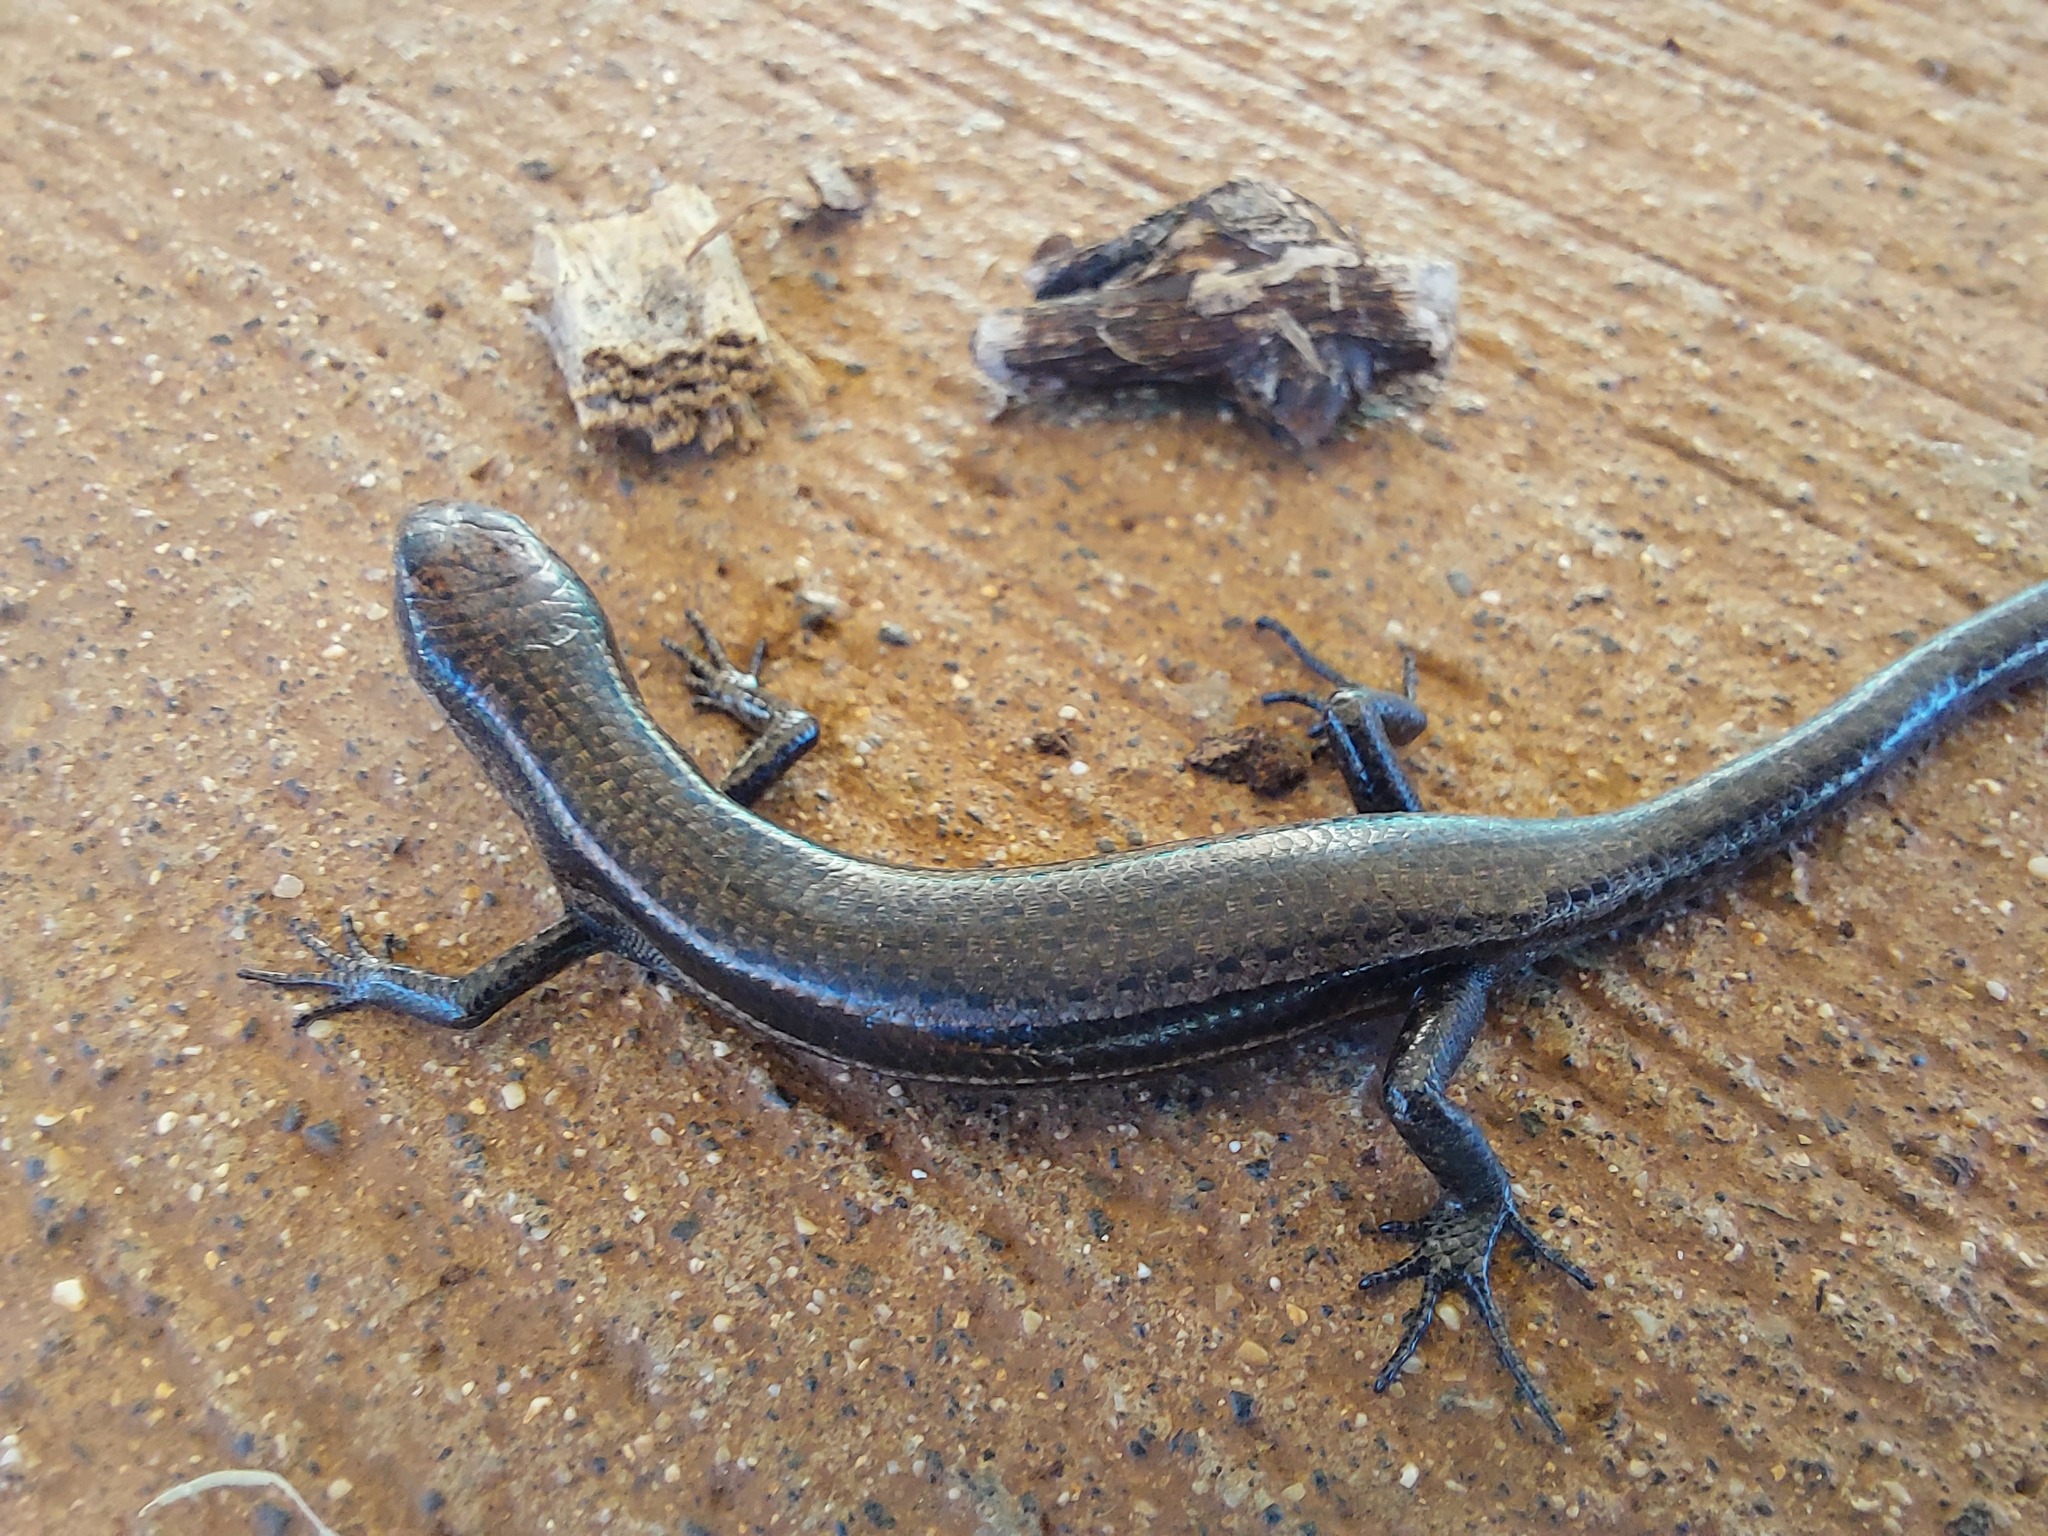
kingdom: Animalia
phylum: Chordata
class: Squamata
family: Scincidae
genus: Lampropholis
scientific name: Lampropholis delicata
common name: Plague skink
